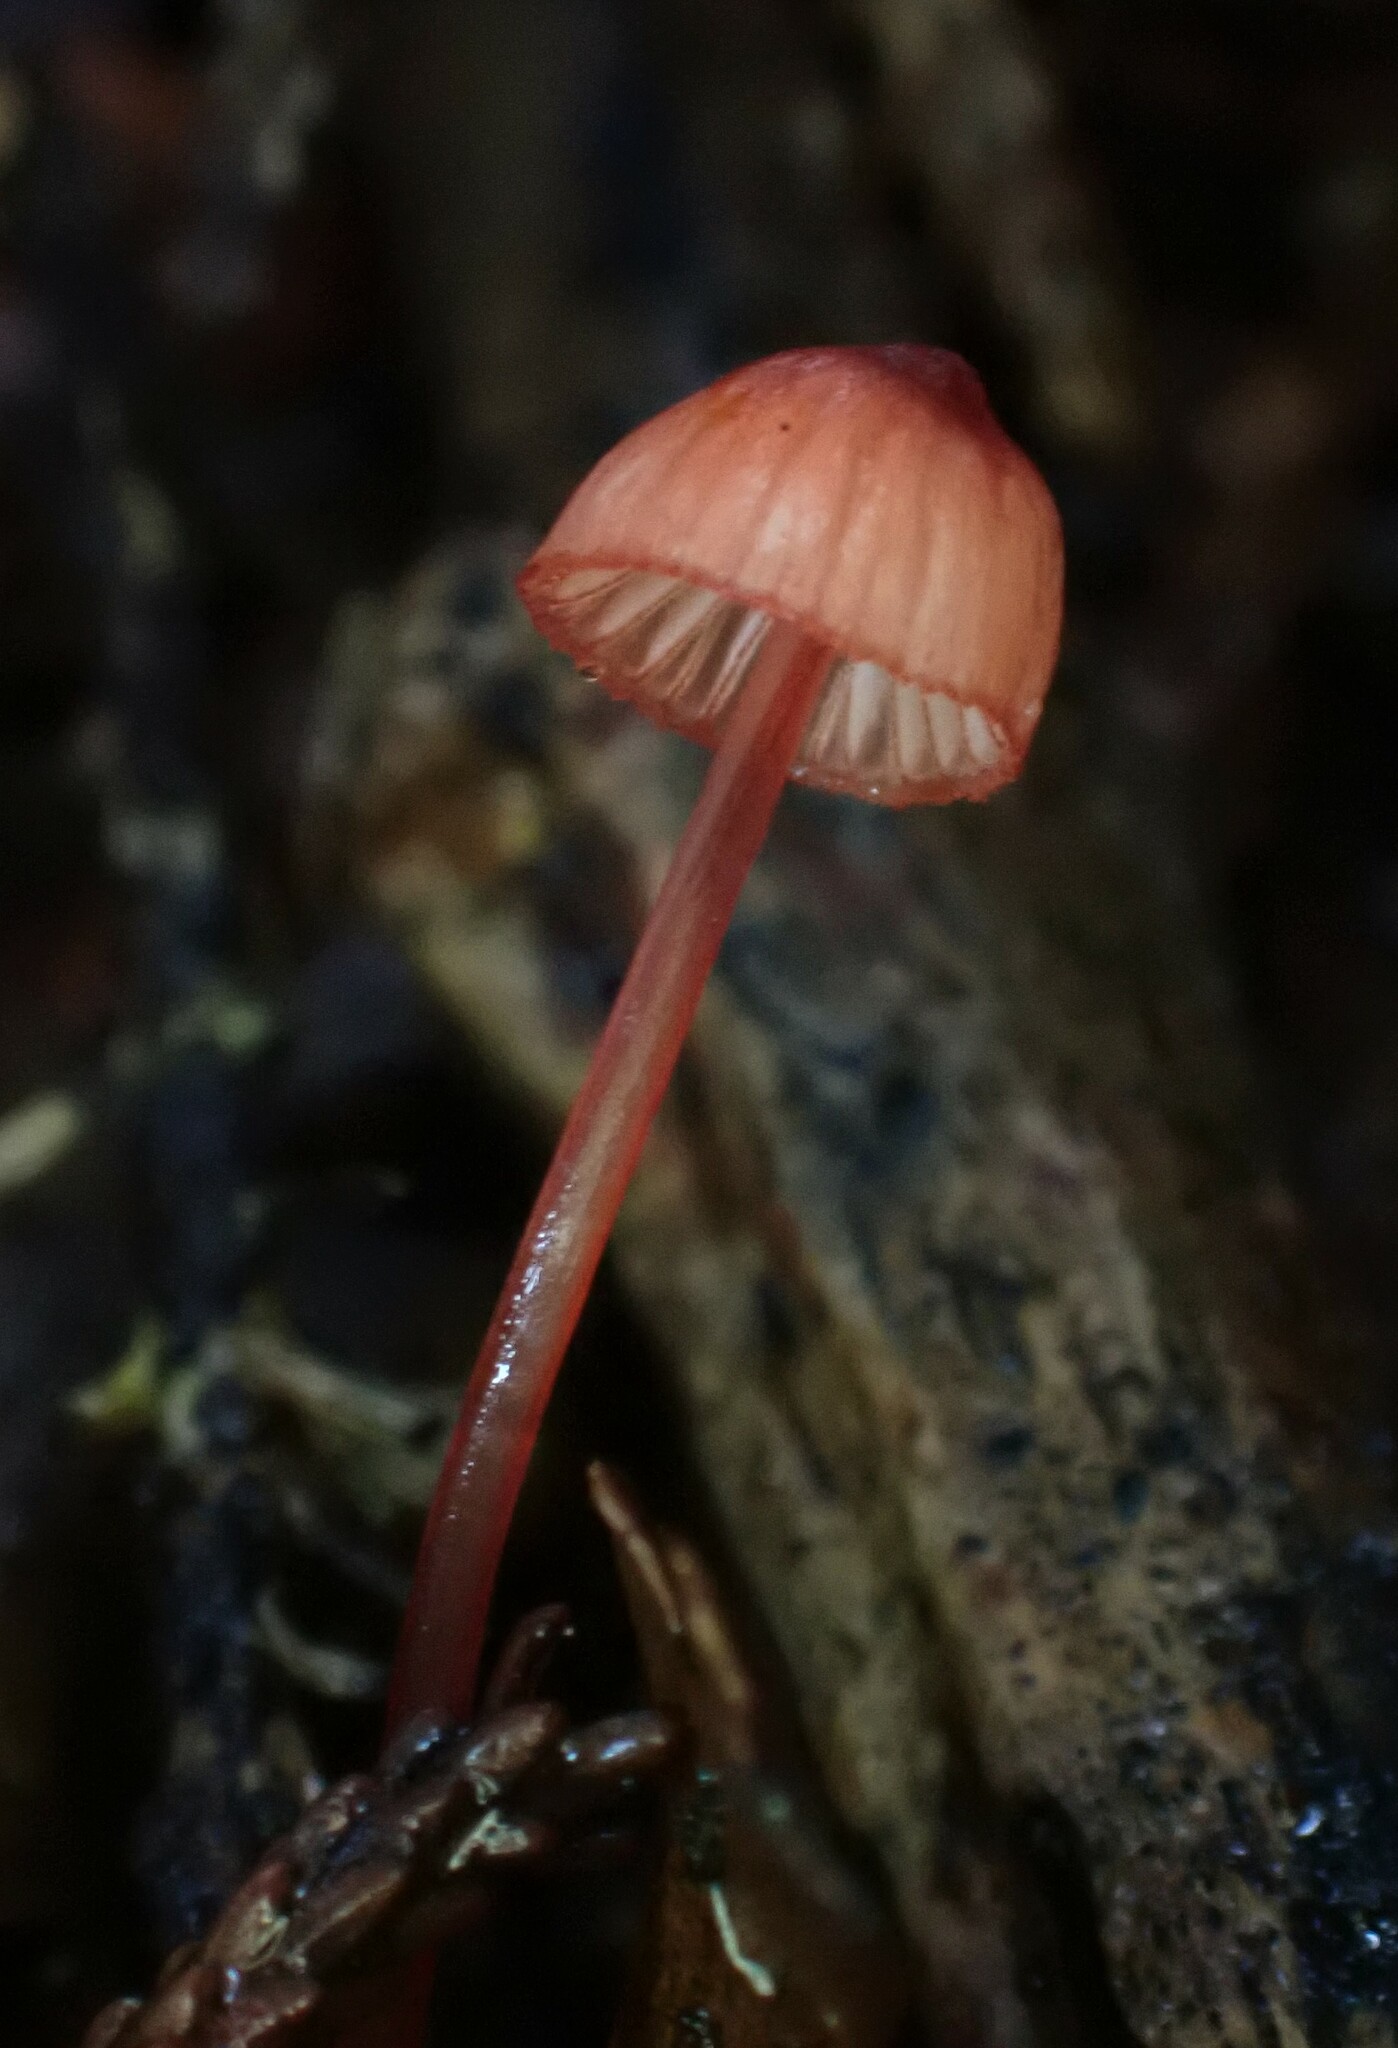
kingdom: Fungi
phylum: Basidiomycota
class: Agaricomycetes
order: Agaricales
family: Mycenaceae
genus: Mycena
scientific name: Mycena ura
